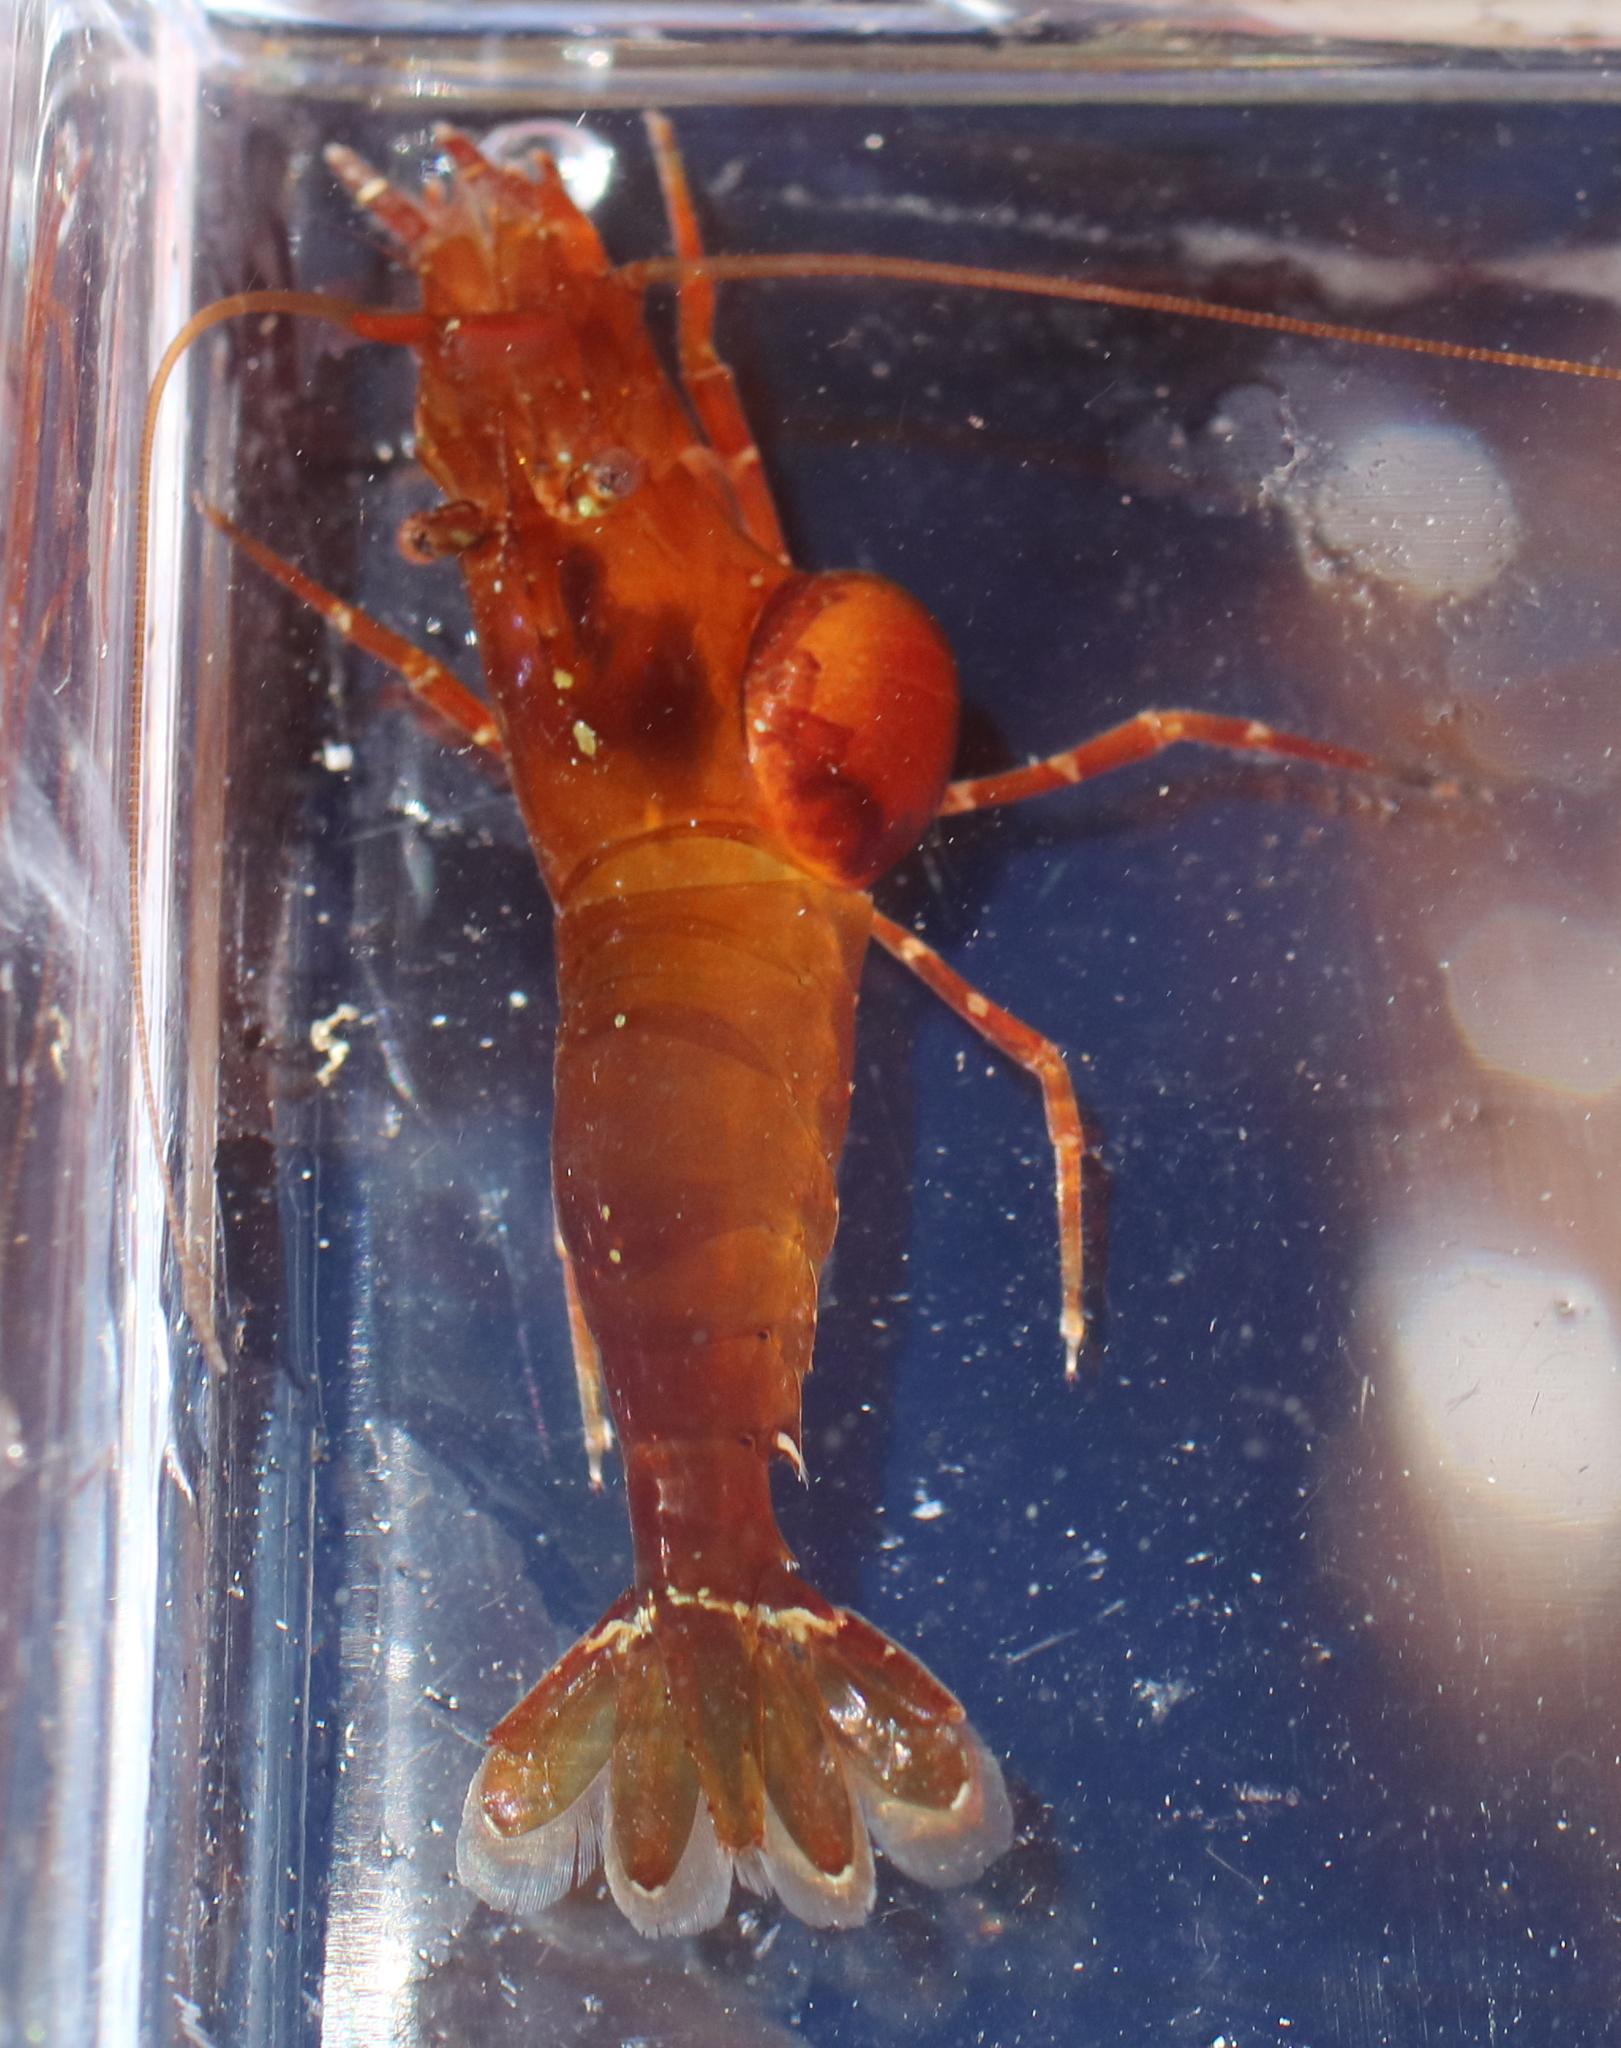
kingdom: Animalia
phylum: Arthropoda
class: Malacostraca
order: Decapoda
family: Thoridae
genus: Heptacarpus
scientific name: Heptacarpus brevirostris
